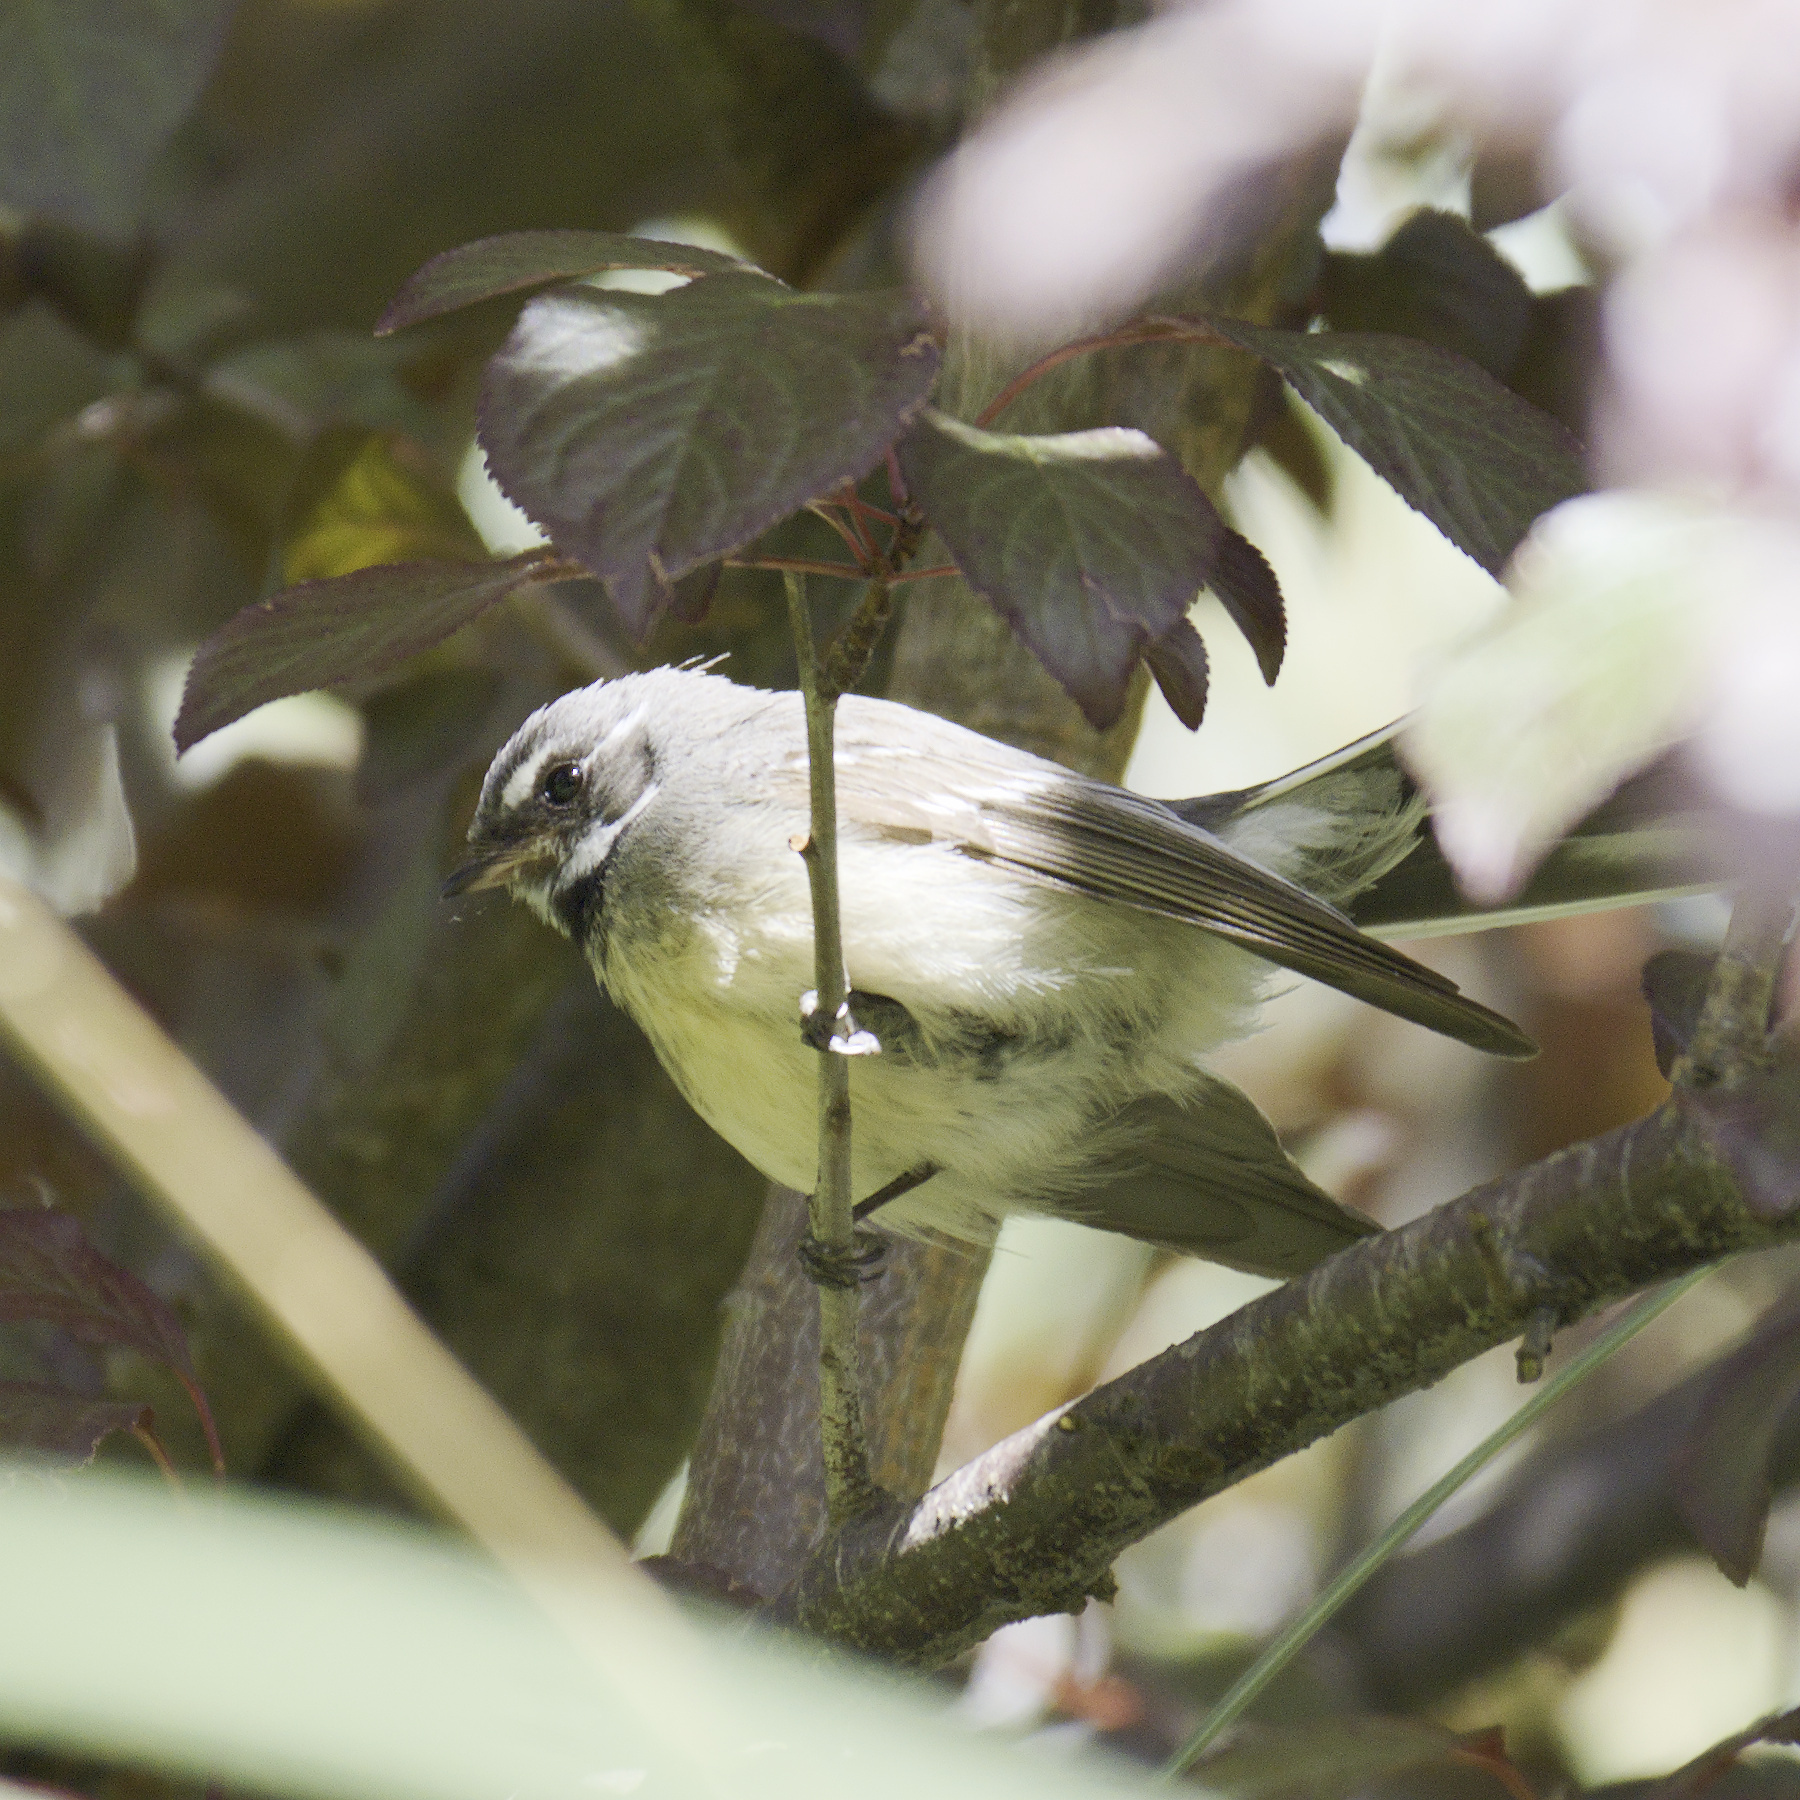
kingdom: Animalia
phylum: Chordata
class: Aves
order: Passeriformes
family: Rhipiduridae
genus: Rhipidura
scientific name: Rhipidura albiscapa
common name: Grey fantail
